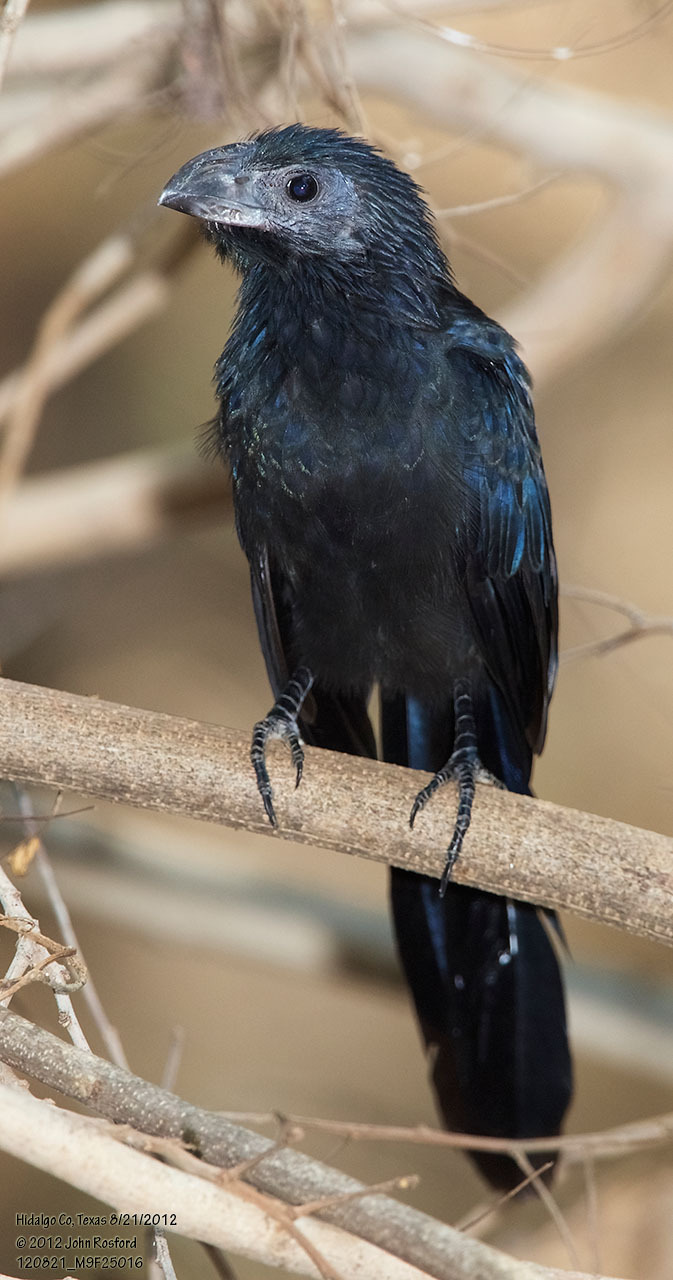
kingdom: Animalia
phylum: Chordata
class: Aves
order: Cuculiformes
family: Cuculidae
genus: Crotophaga
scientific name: Crotophaga sulcirostris
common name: Groove-billed ani
